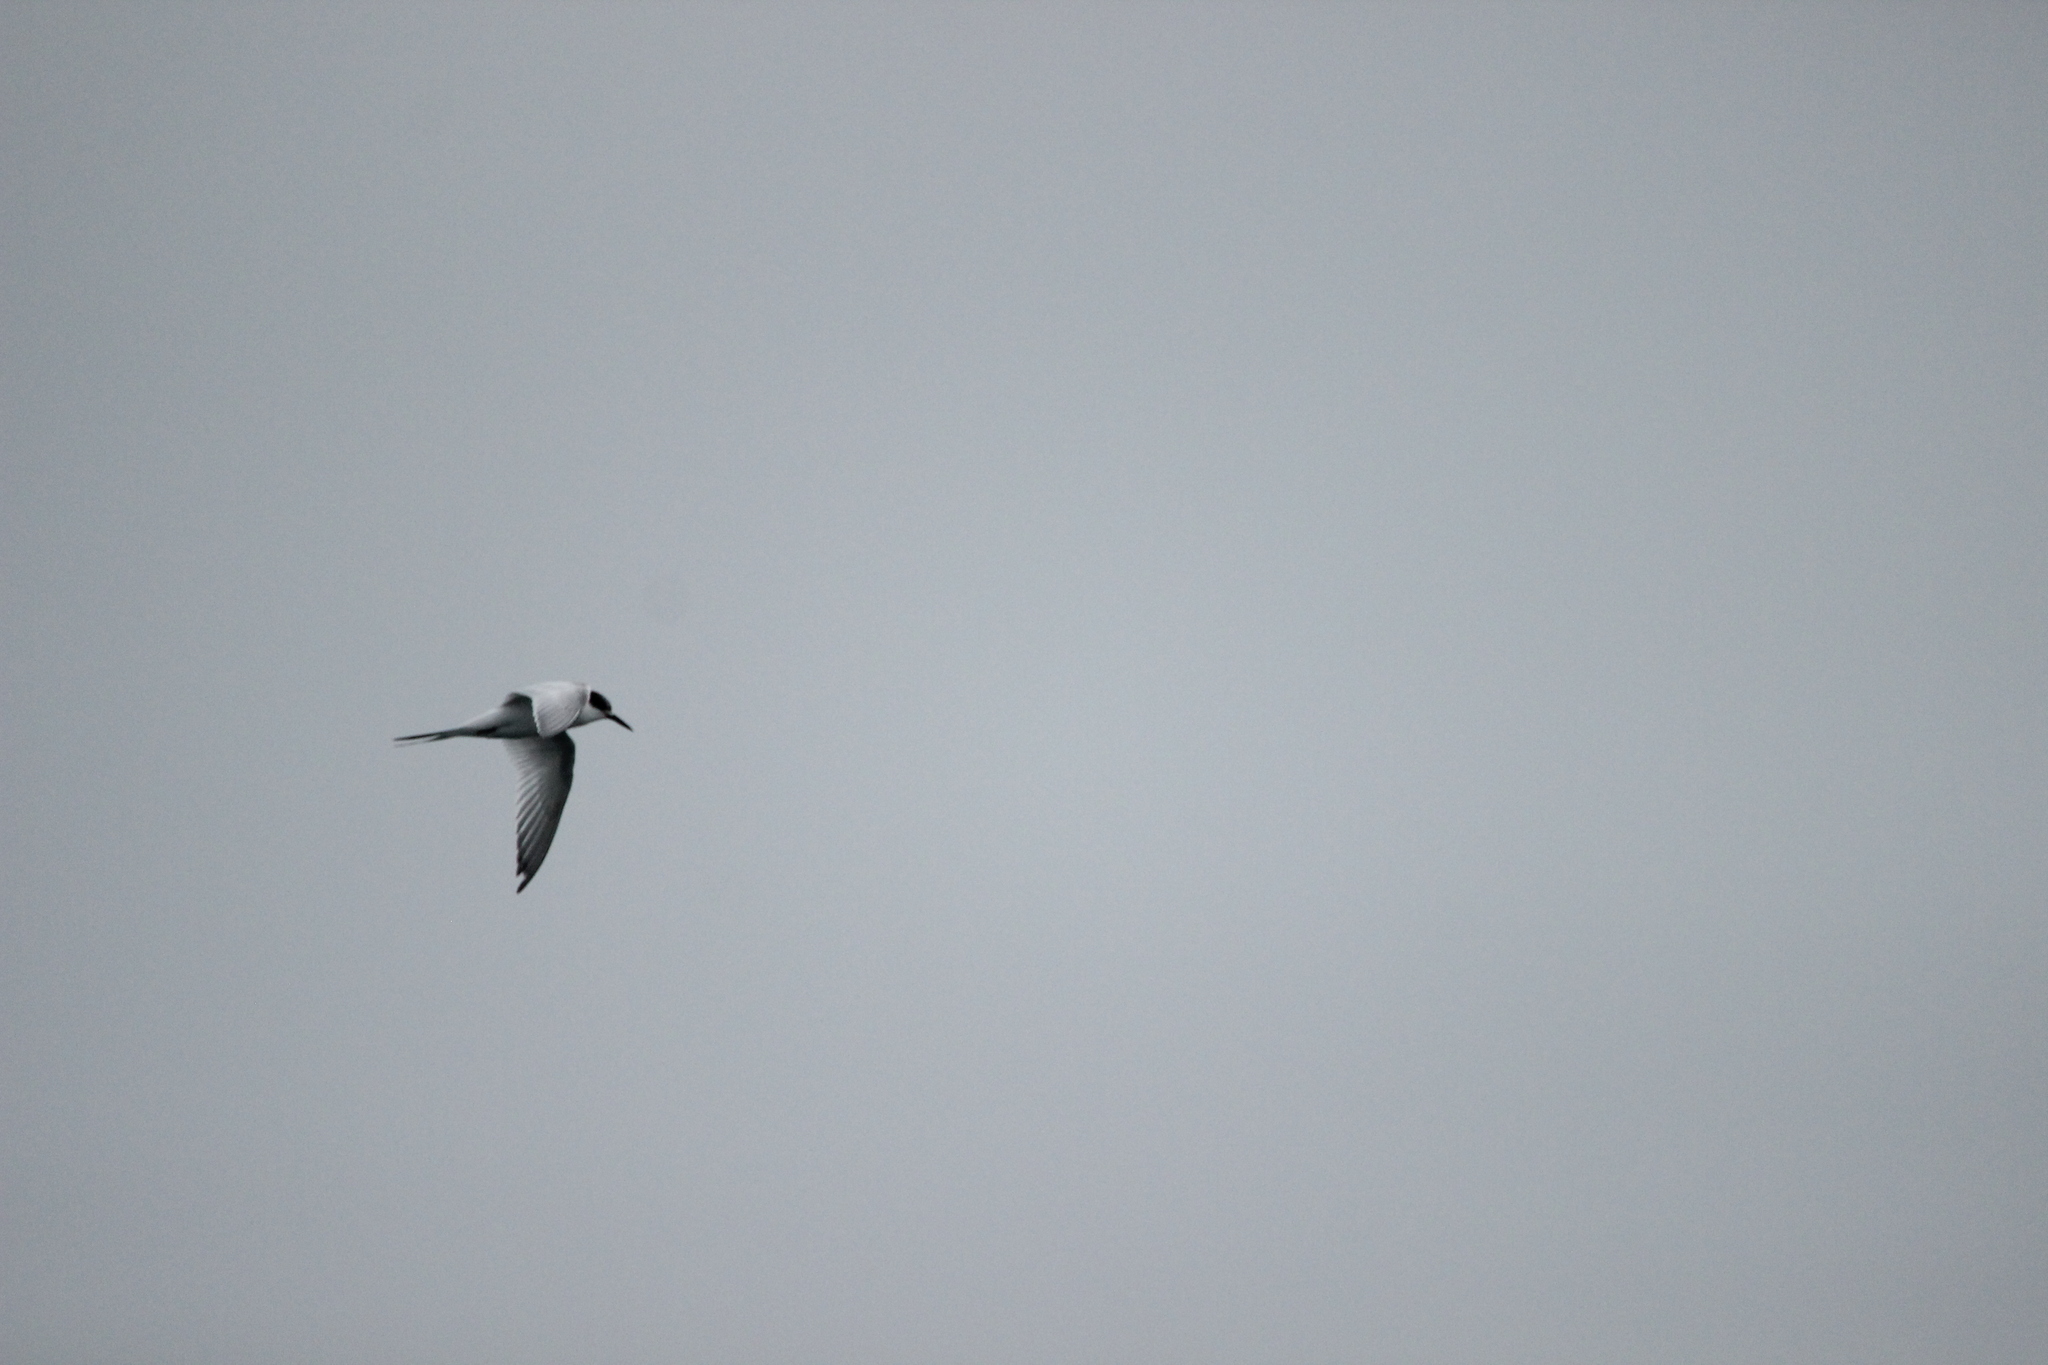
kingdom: Animalia
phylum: Chordata
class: Aves
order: Charadriiformes
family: Laridae
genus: Sterna
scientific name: Sterna striata
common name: White-fronted tern
